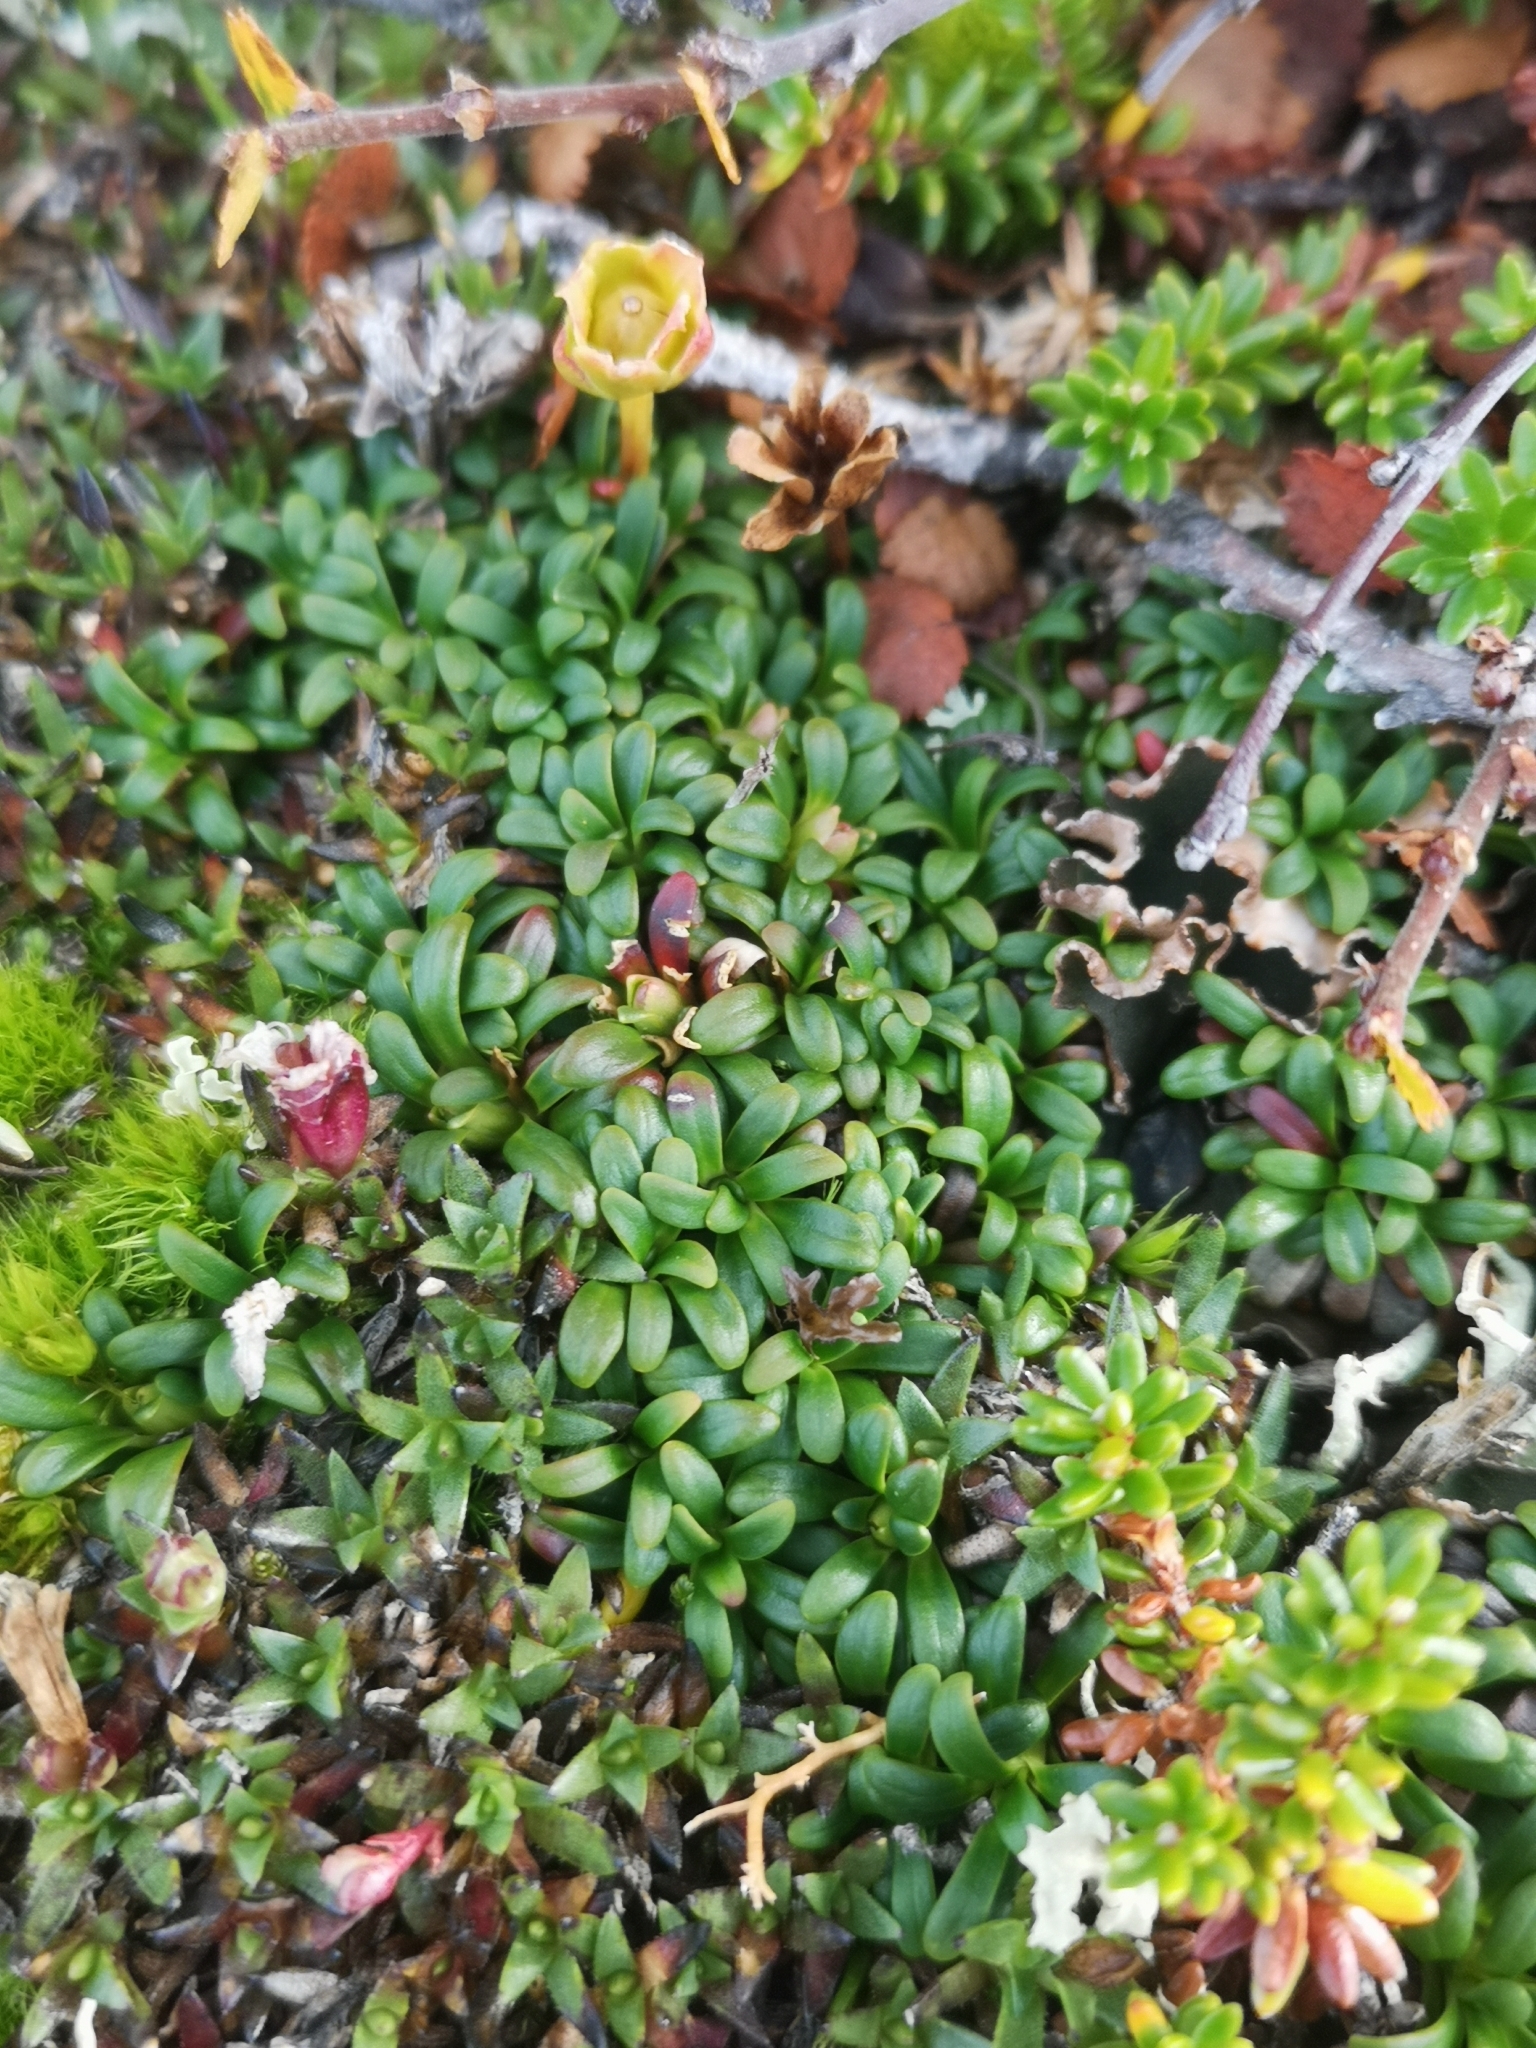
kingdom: Plantae
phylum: Tracheophyta
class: Magnoliopsida
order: Ericales
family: Diapensiaceae
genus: Diapensia
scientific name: Diapensia lapponica
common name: Diapensia
